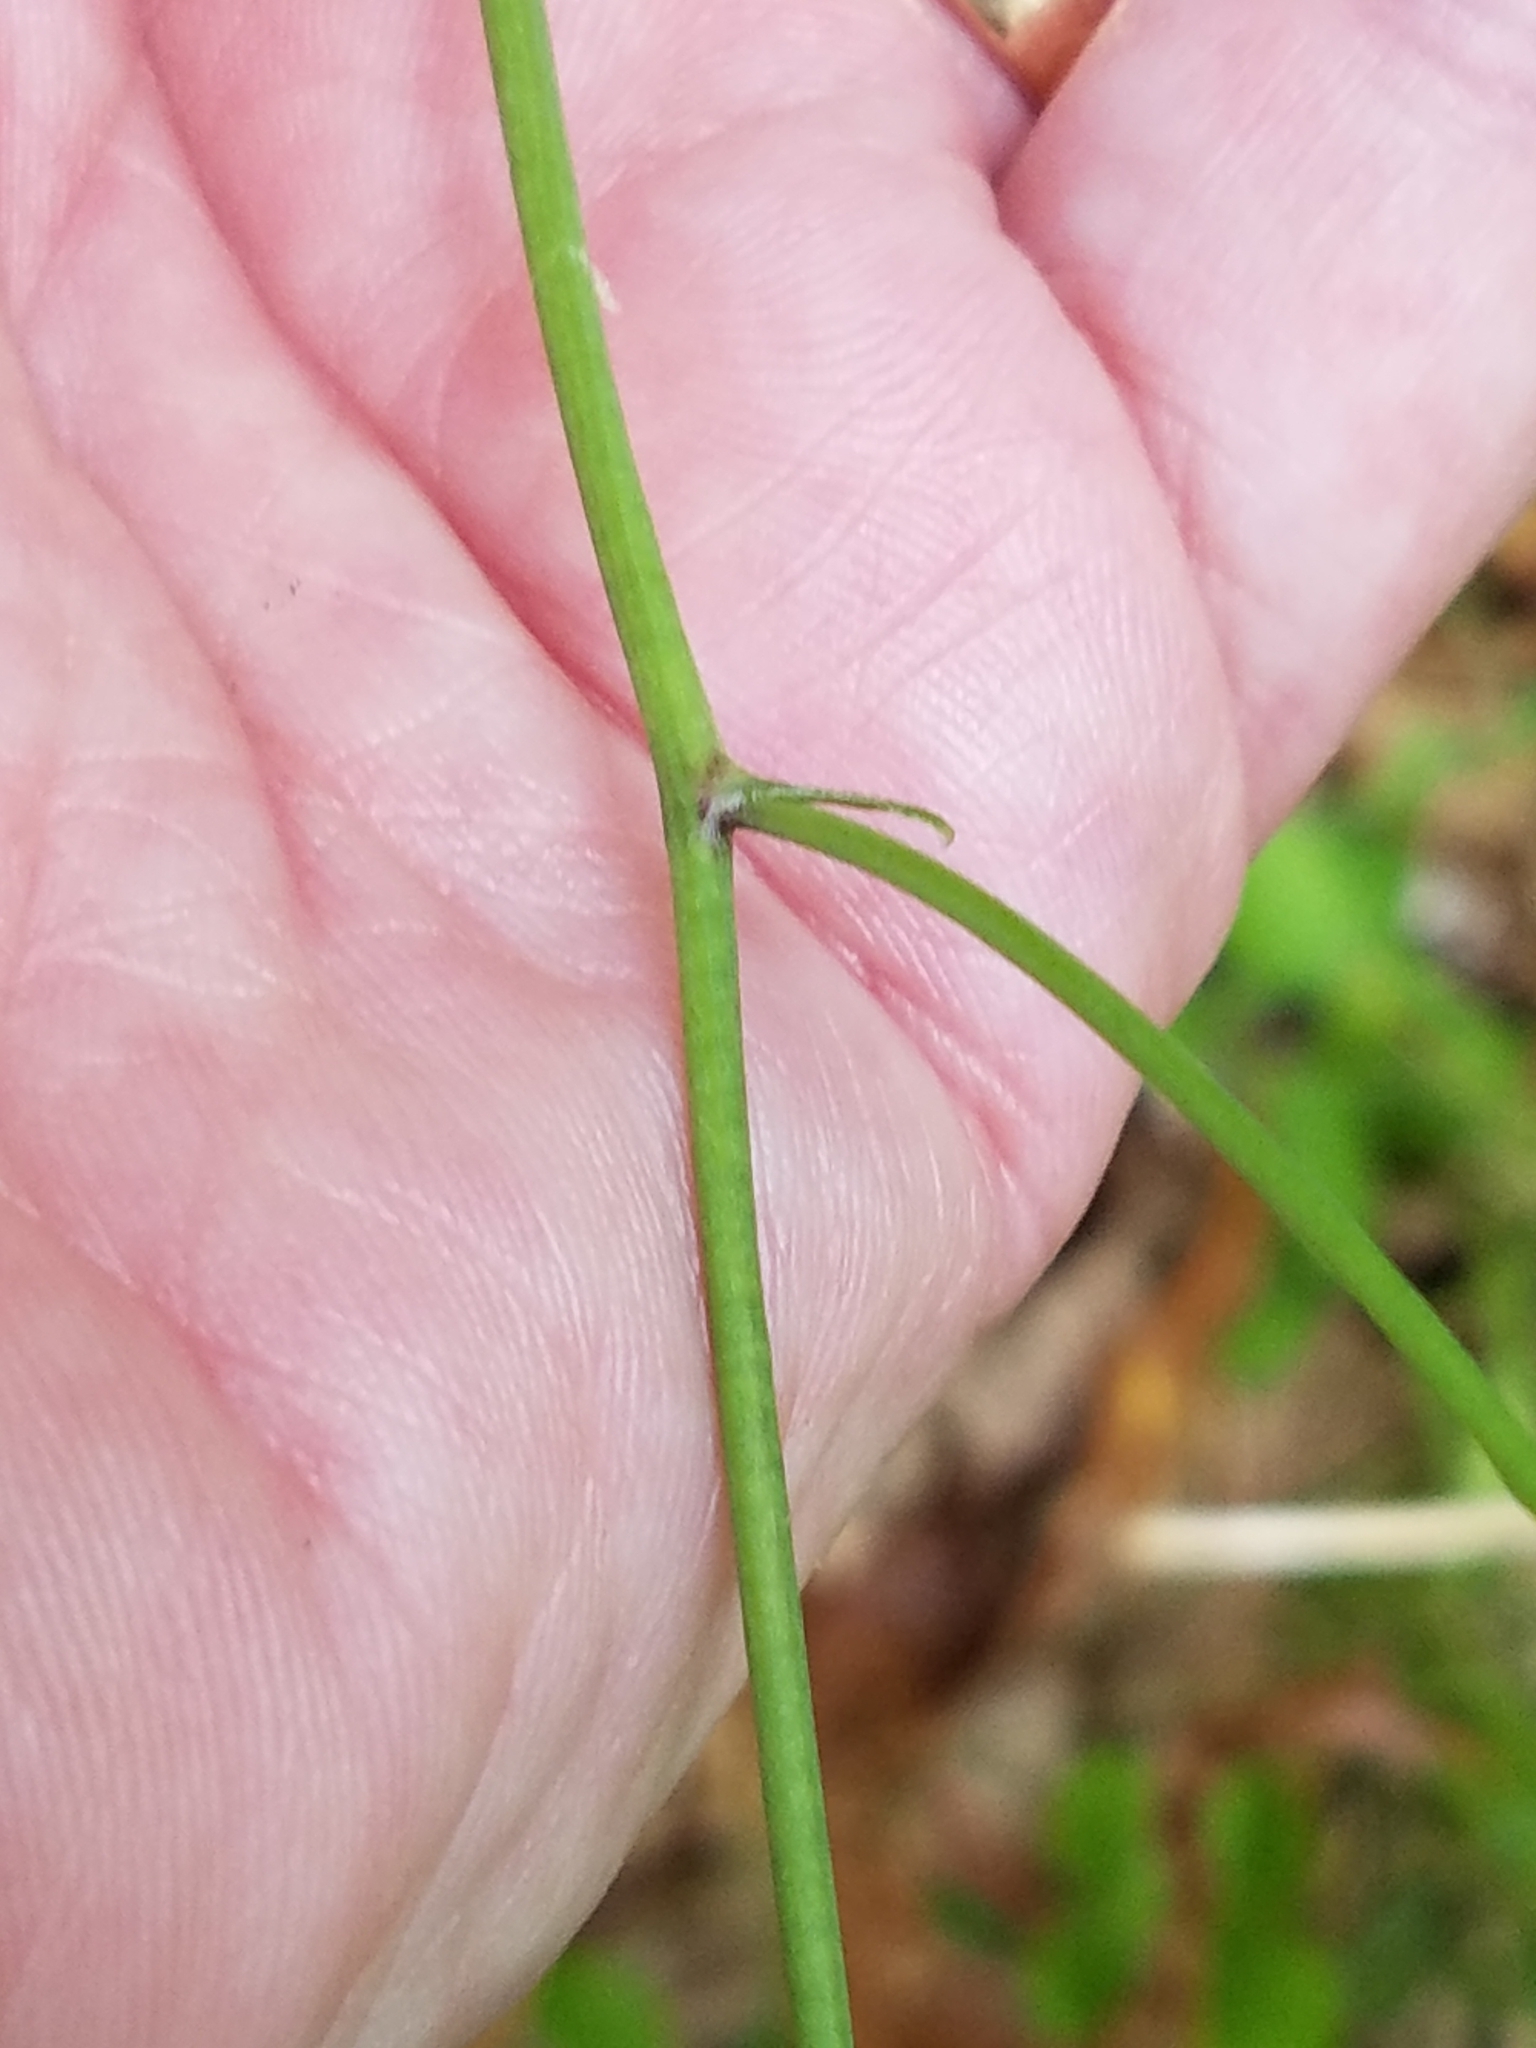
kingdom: Plantae
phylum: Tracheophyta
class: Magnoliopsida
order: Asterales
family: Asteraceae
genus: Hieracium
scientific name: Hieracium venosum
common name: Rattlesnake hawkweed
